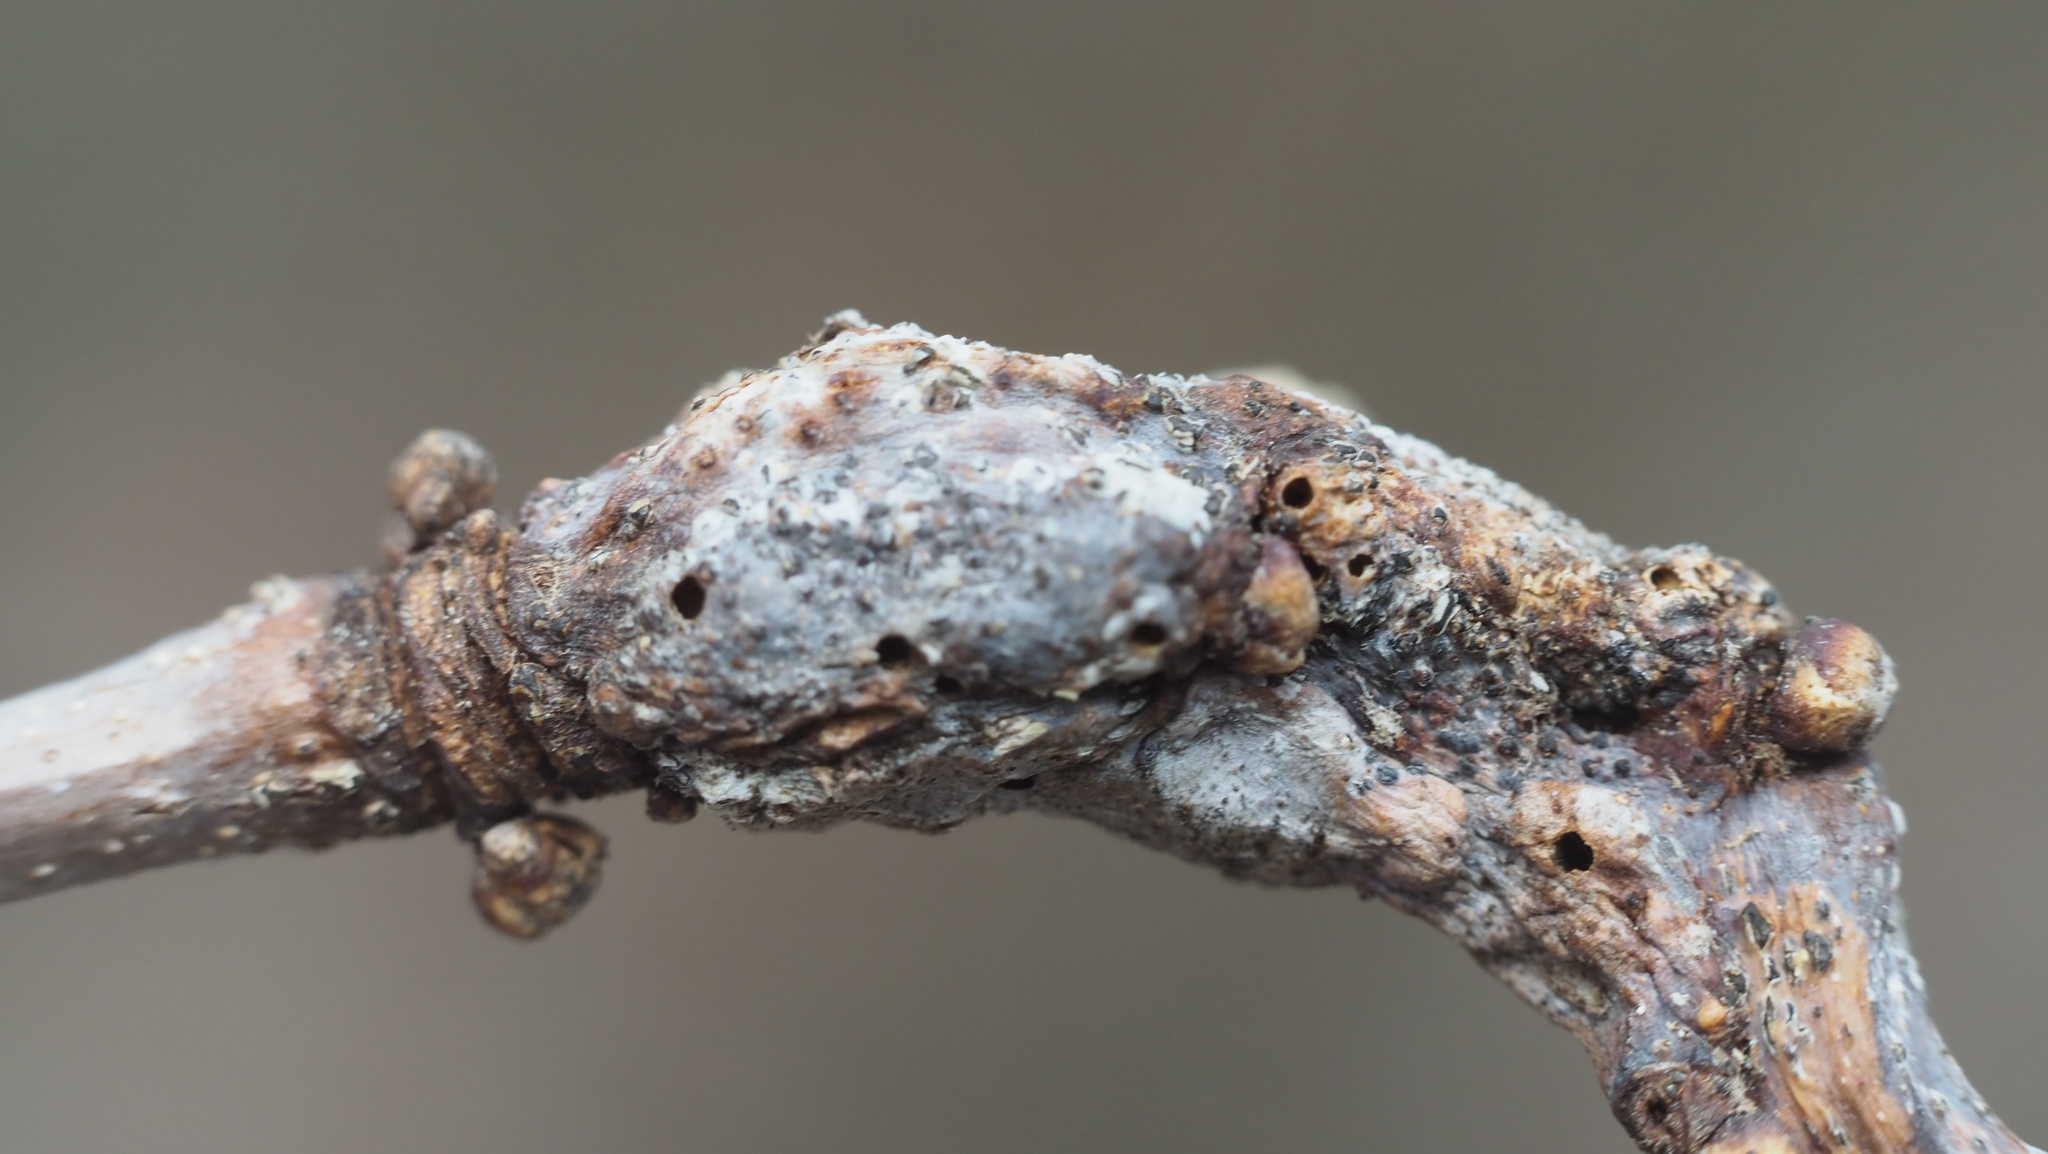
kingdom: Animalia
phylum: Arthropoda
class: Insecta
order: Hymenoptera
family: Cynipidae
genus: Neuroterus
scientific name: Neuroterus quercusbaccarum
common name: Common spangle gall
